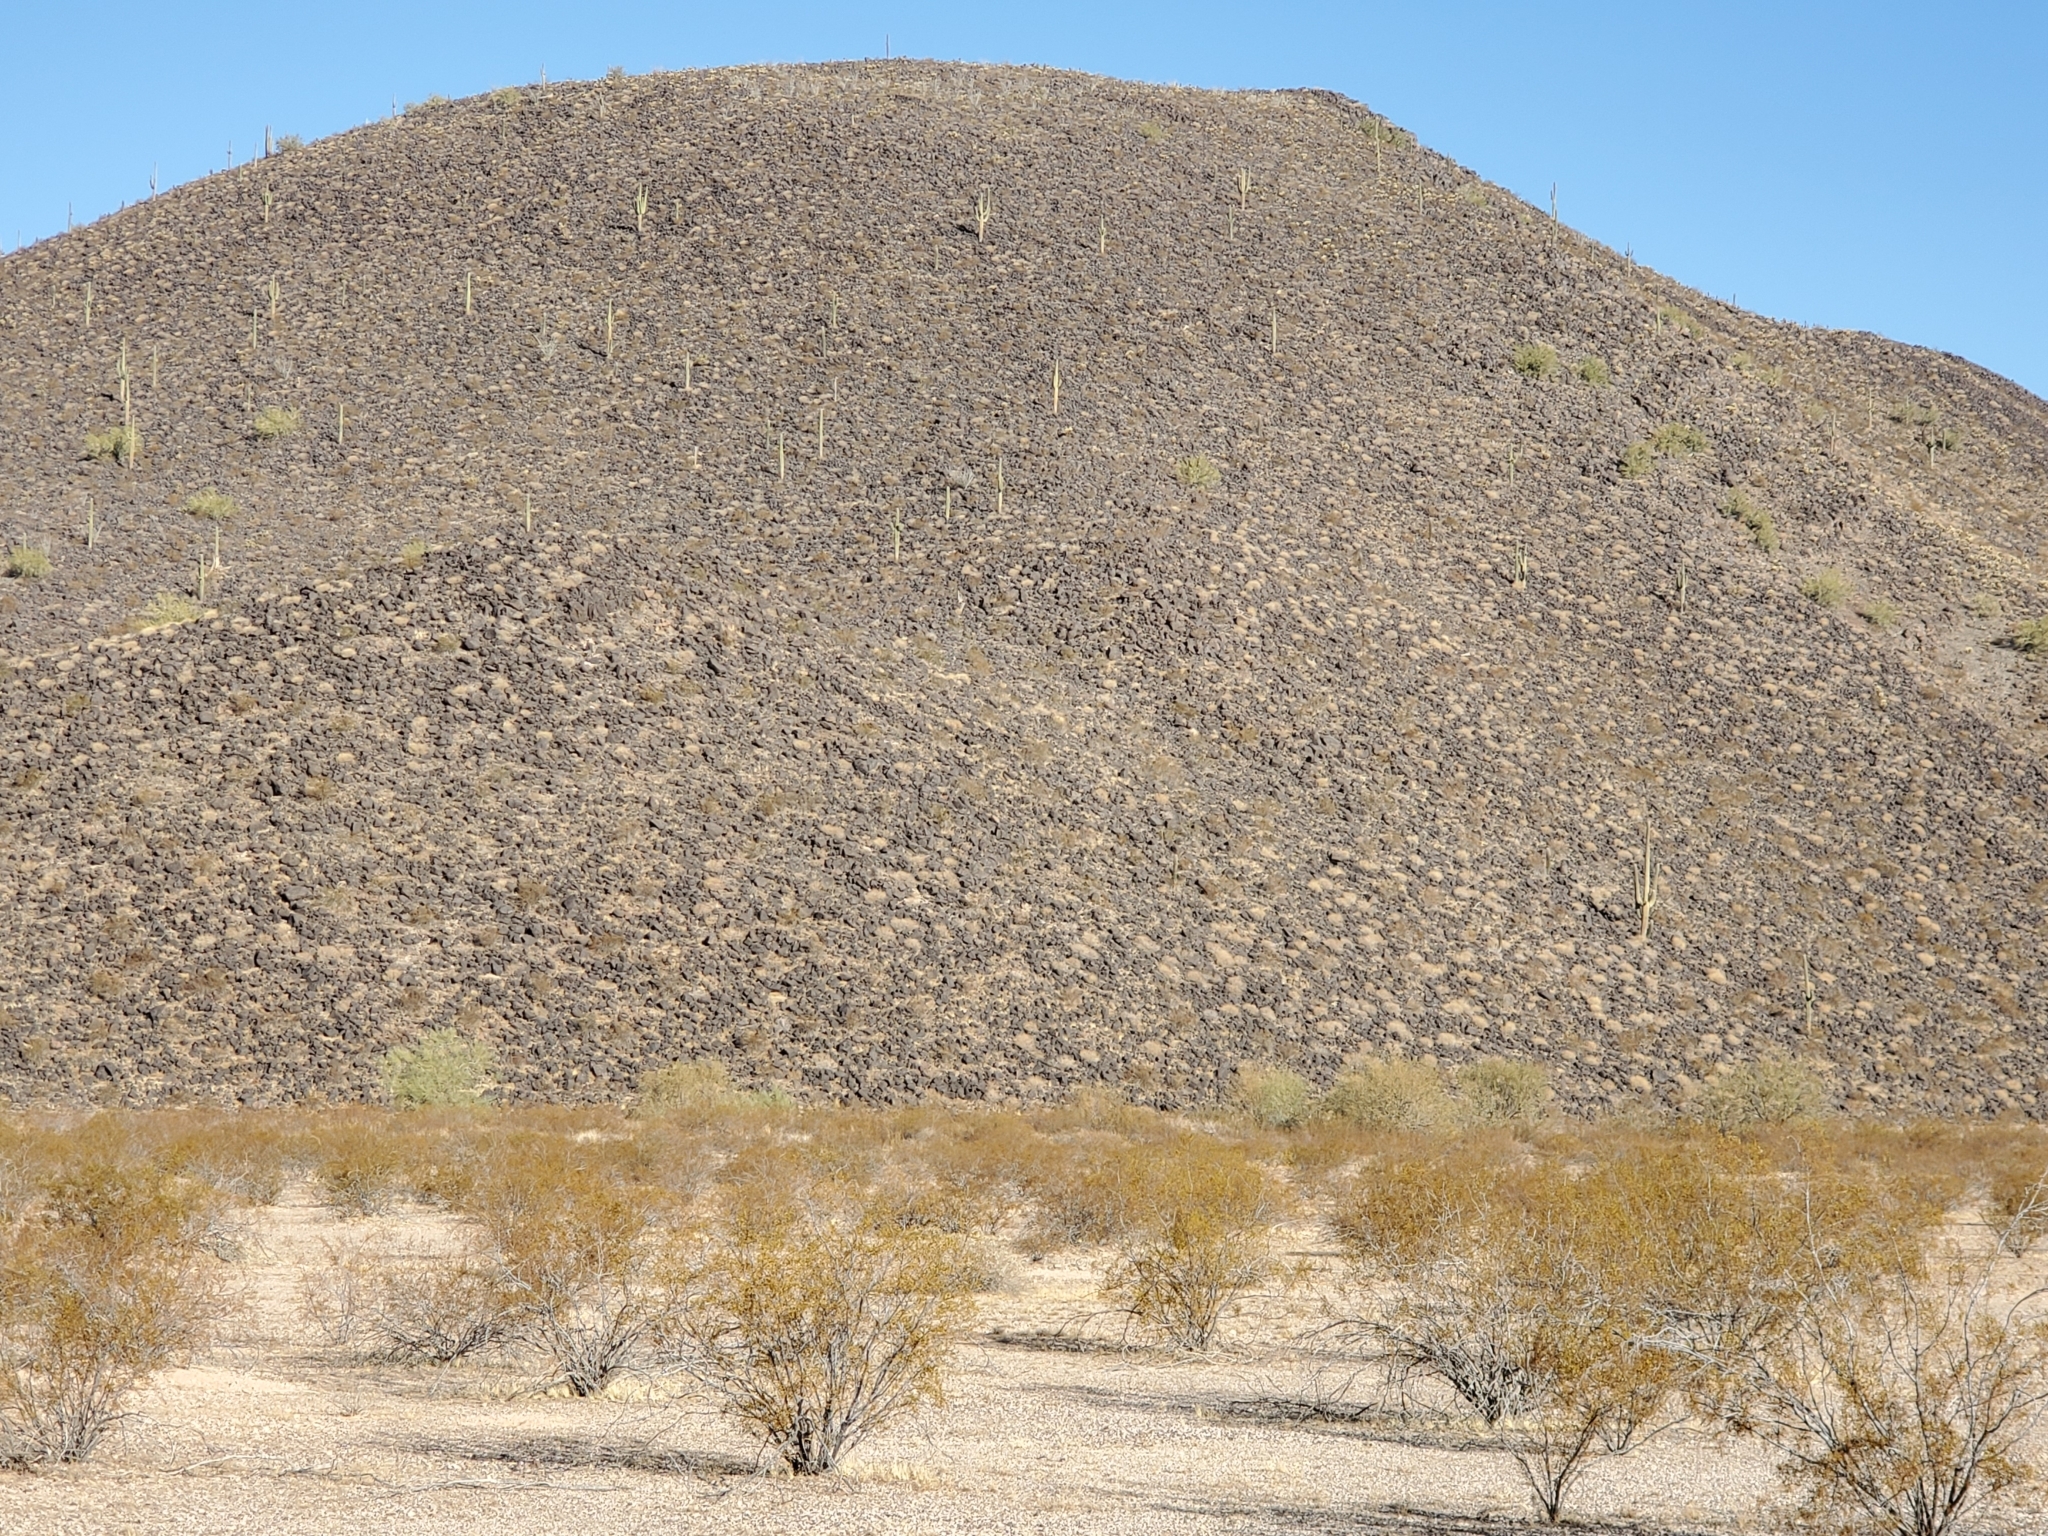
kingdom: Plantae
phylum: Tracheophyta
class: Magnoliopsida
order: Zygophyllales
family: Zygophyllaceae
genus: Larrea
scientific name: Larrea tridentata
